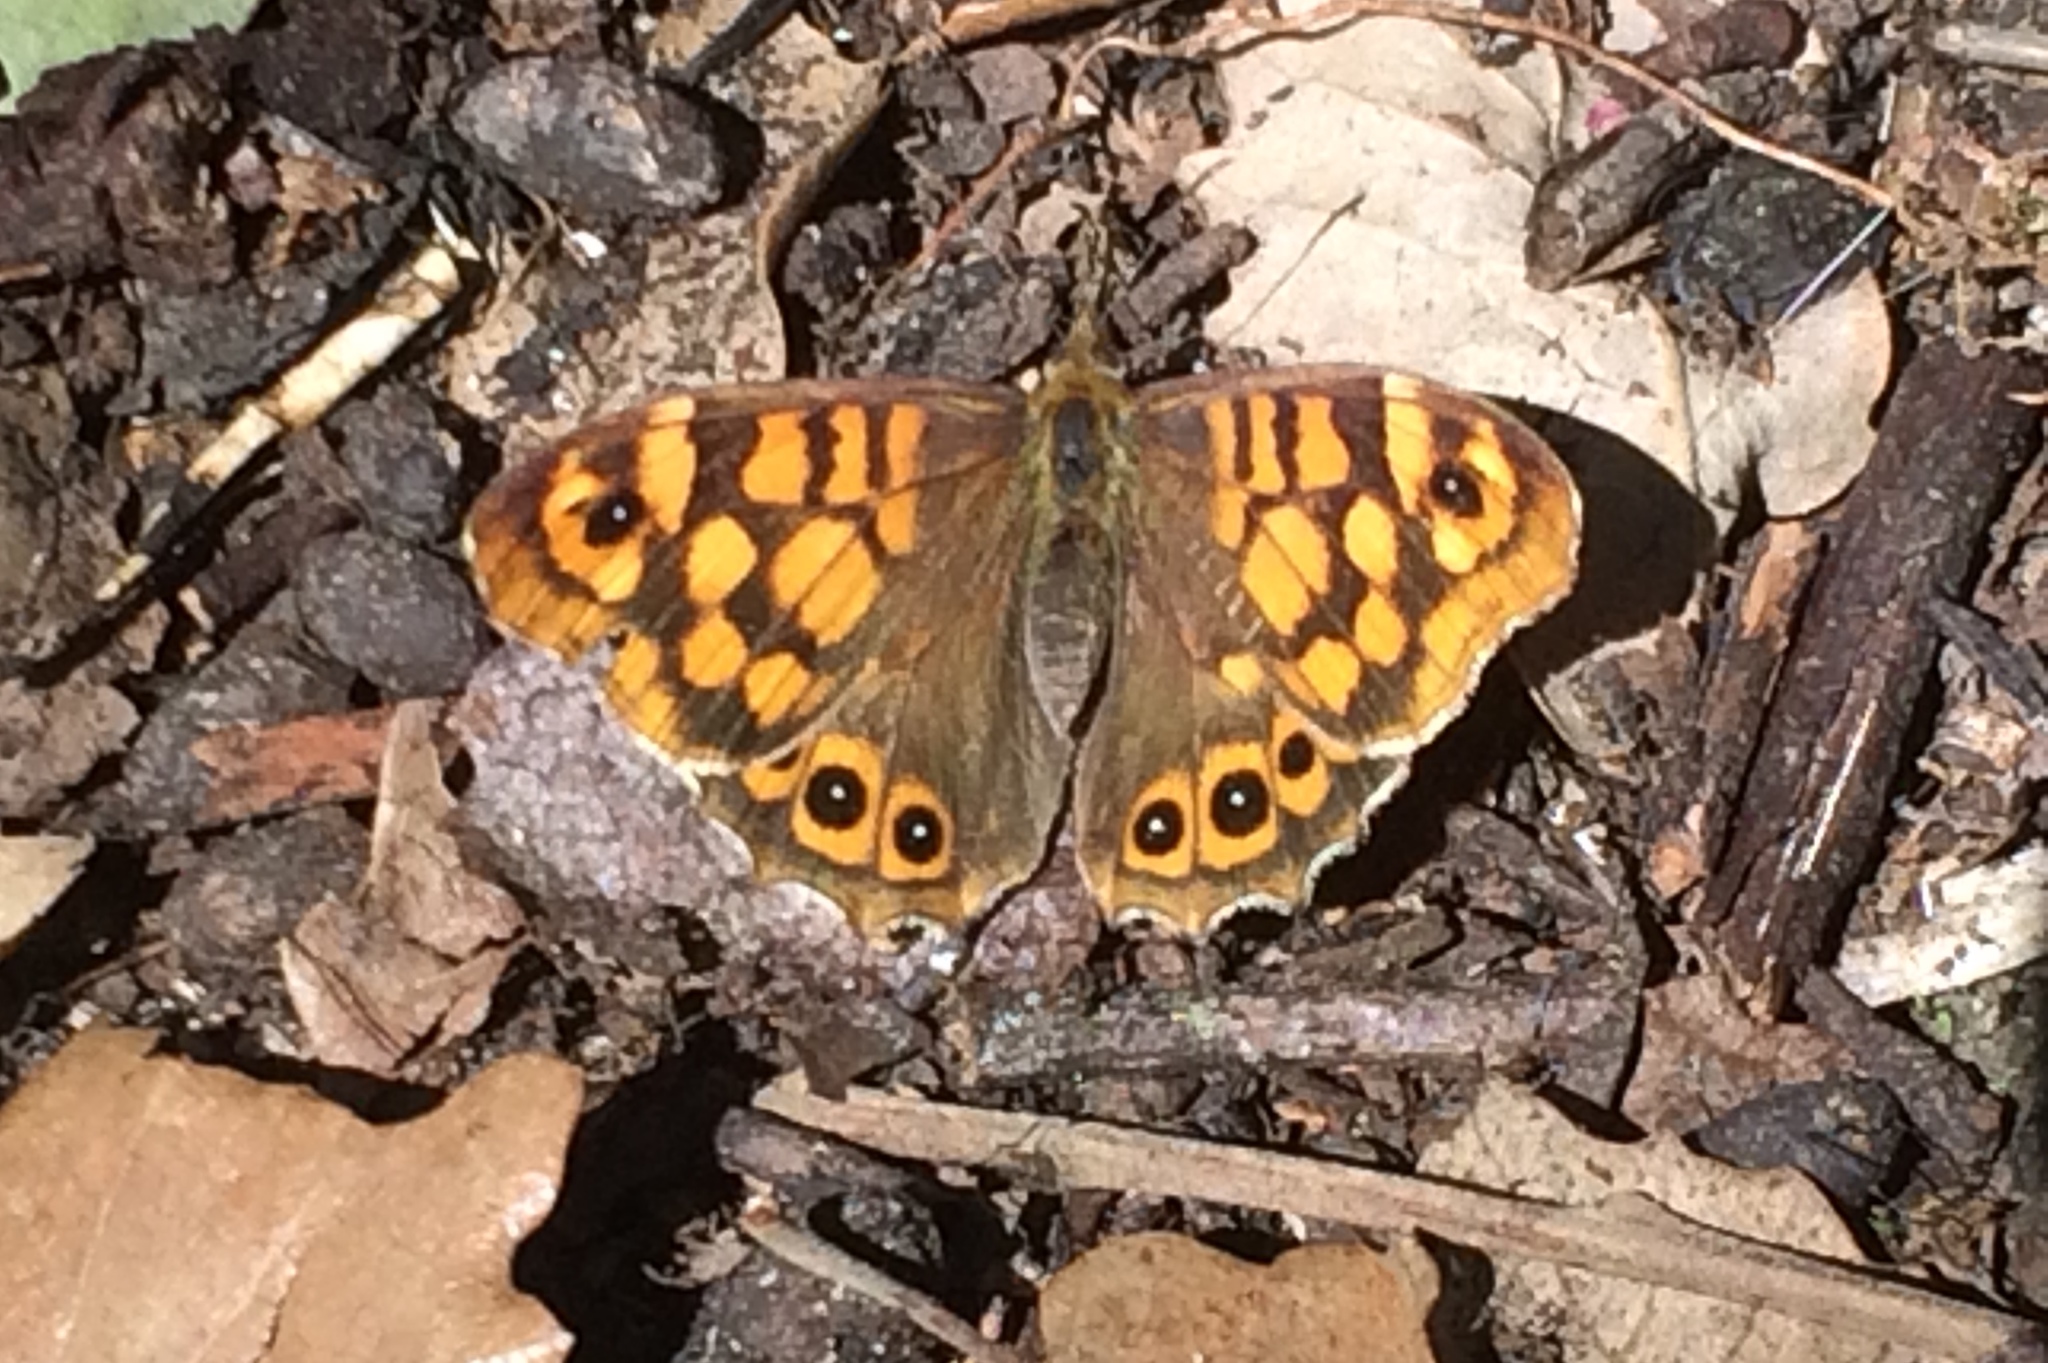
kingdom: Animalia
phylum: Arthropoda
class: Insecta
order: Lepidoptera
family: Nymphalidae
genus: Pararge
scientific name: Pararge aegeria
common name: Speckled wood
